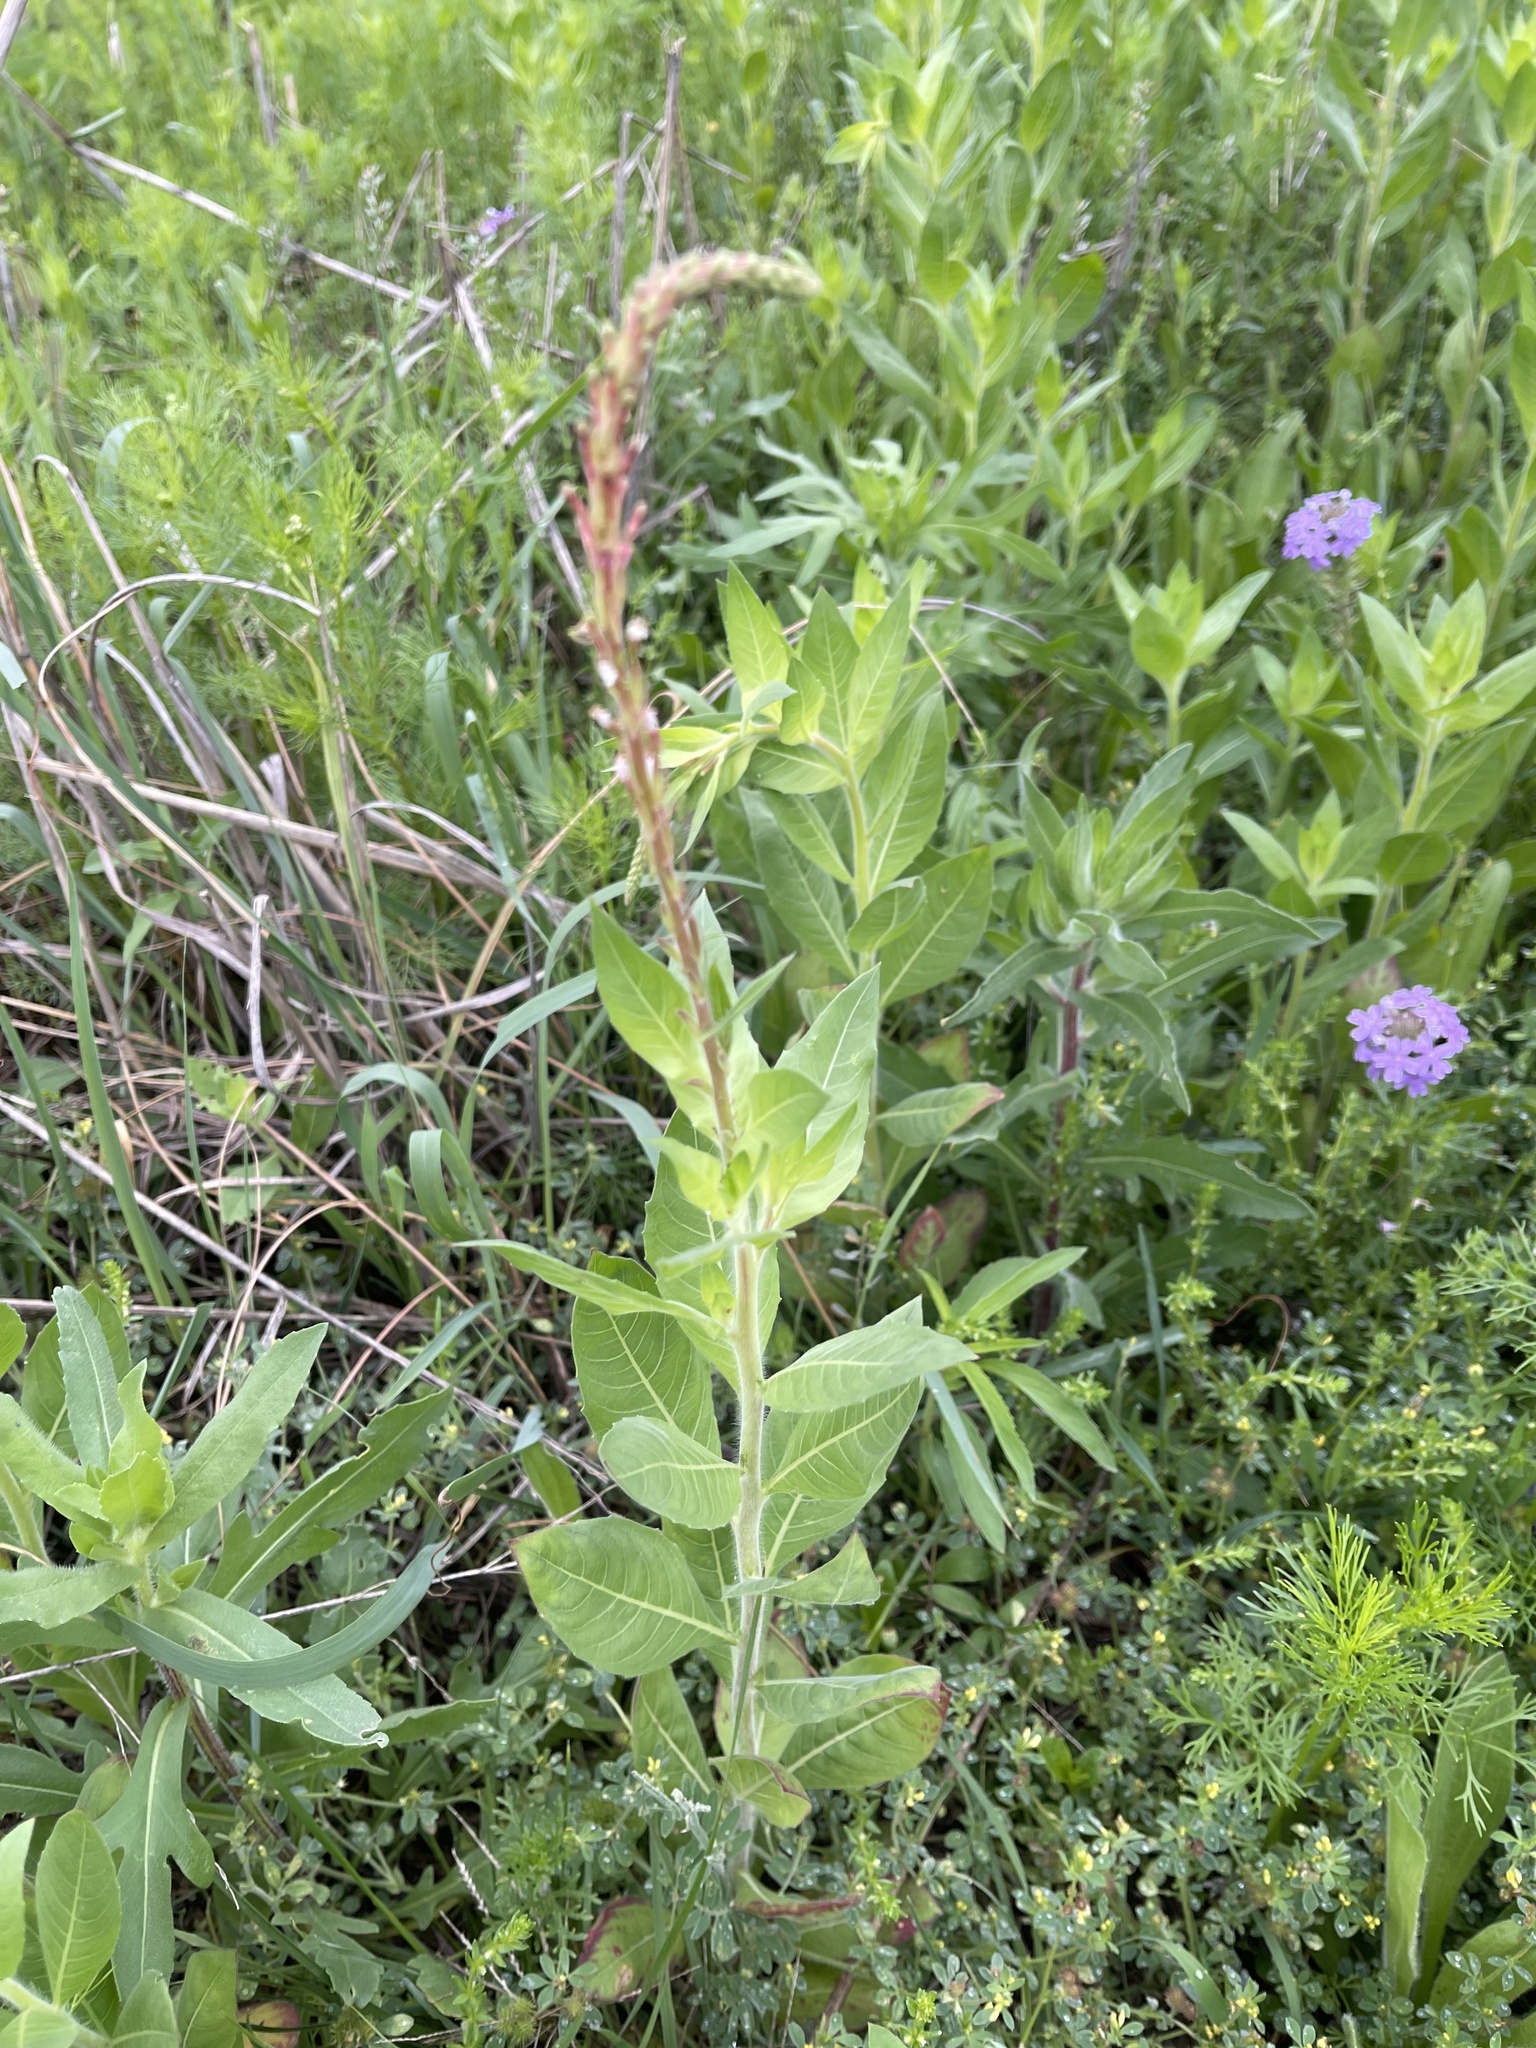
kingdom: Plantae
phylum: Tracheophyta
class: Magnoliopsida
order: Myrtales
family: Onagraceae
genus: Oenothera
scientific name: Oenothera curtiflora
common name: Velvetweed
